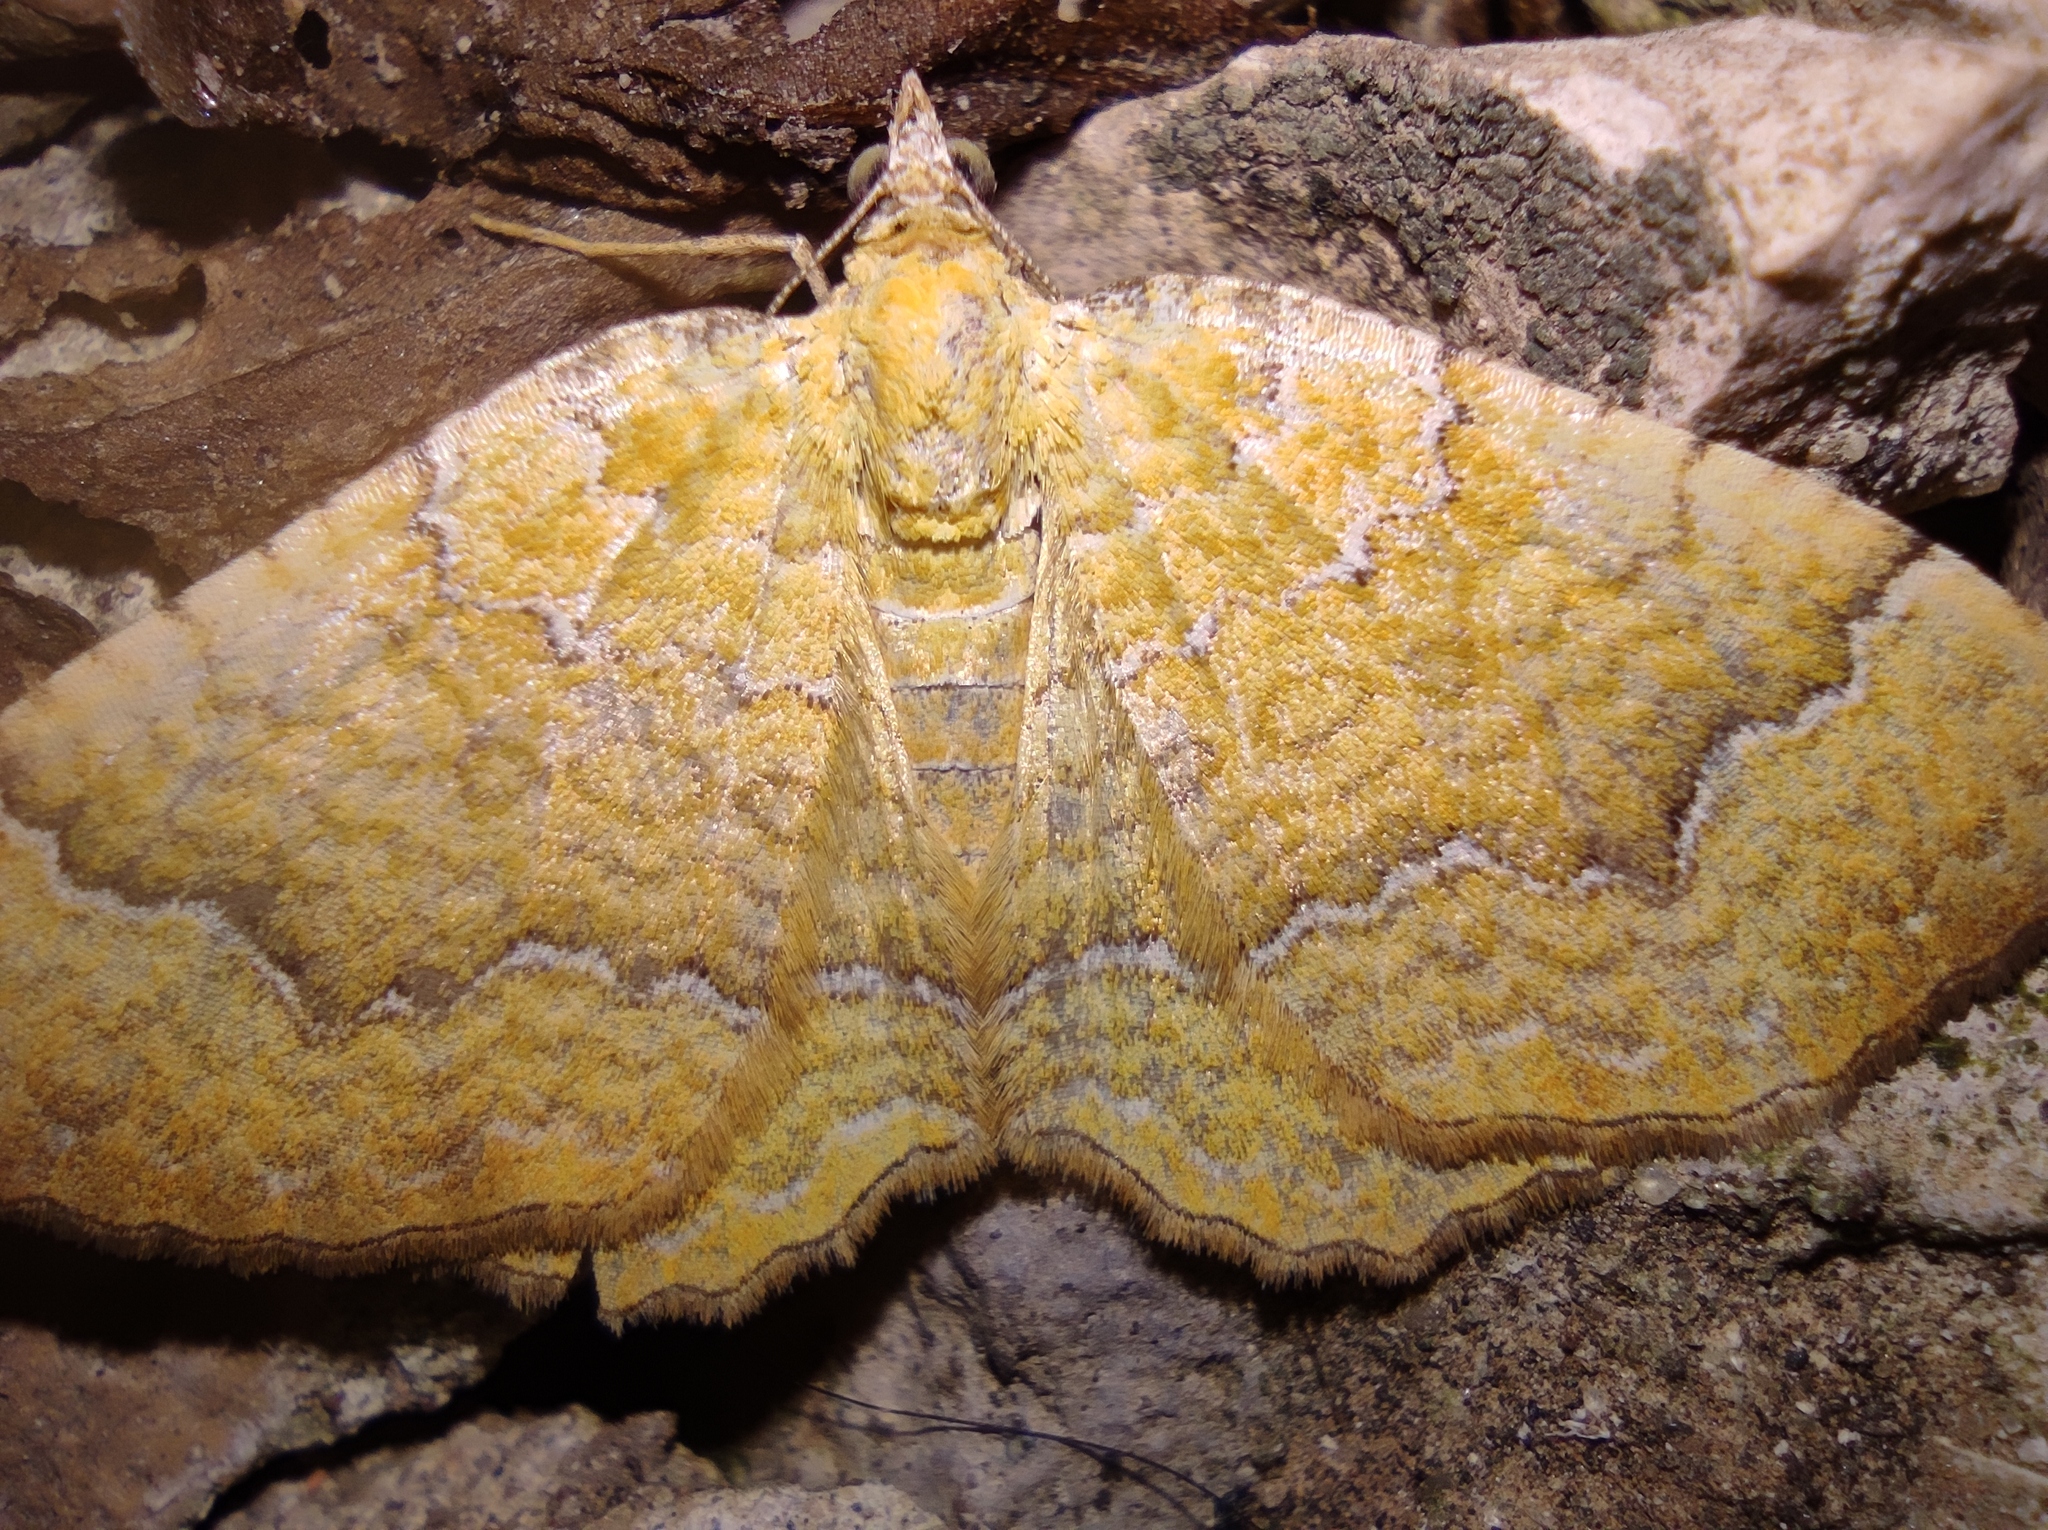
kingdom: Animalia
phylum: Arthropoda
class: Insecta
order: Lepidoptera
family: Geometridae
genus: Camptogramma
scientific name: Camptogramma bilineata
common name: Yellow shell
